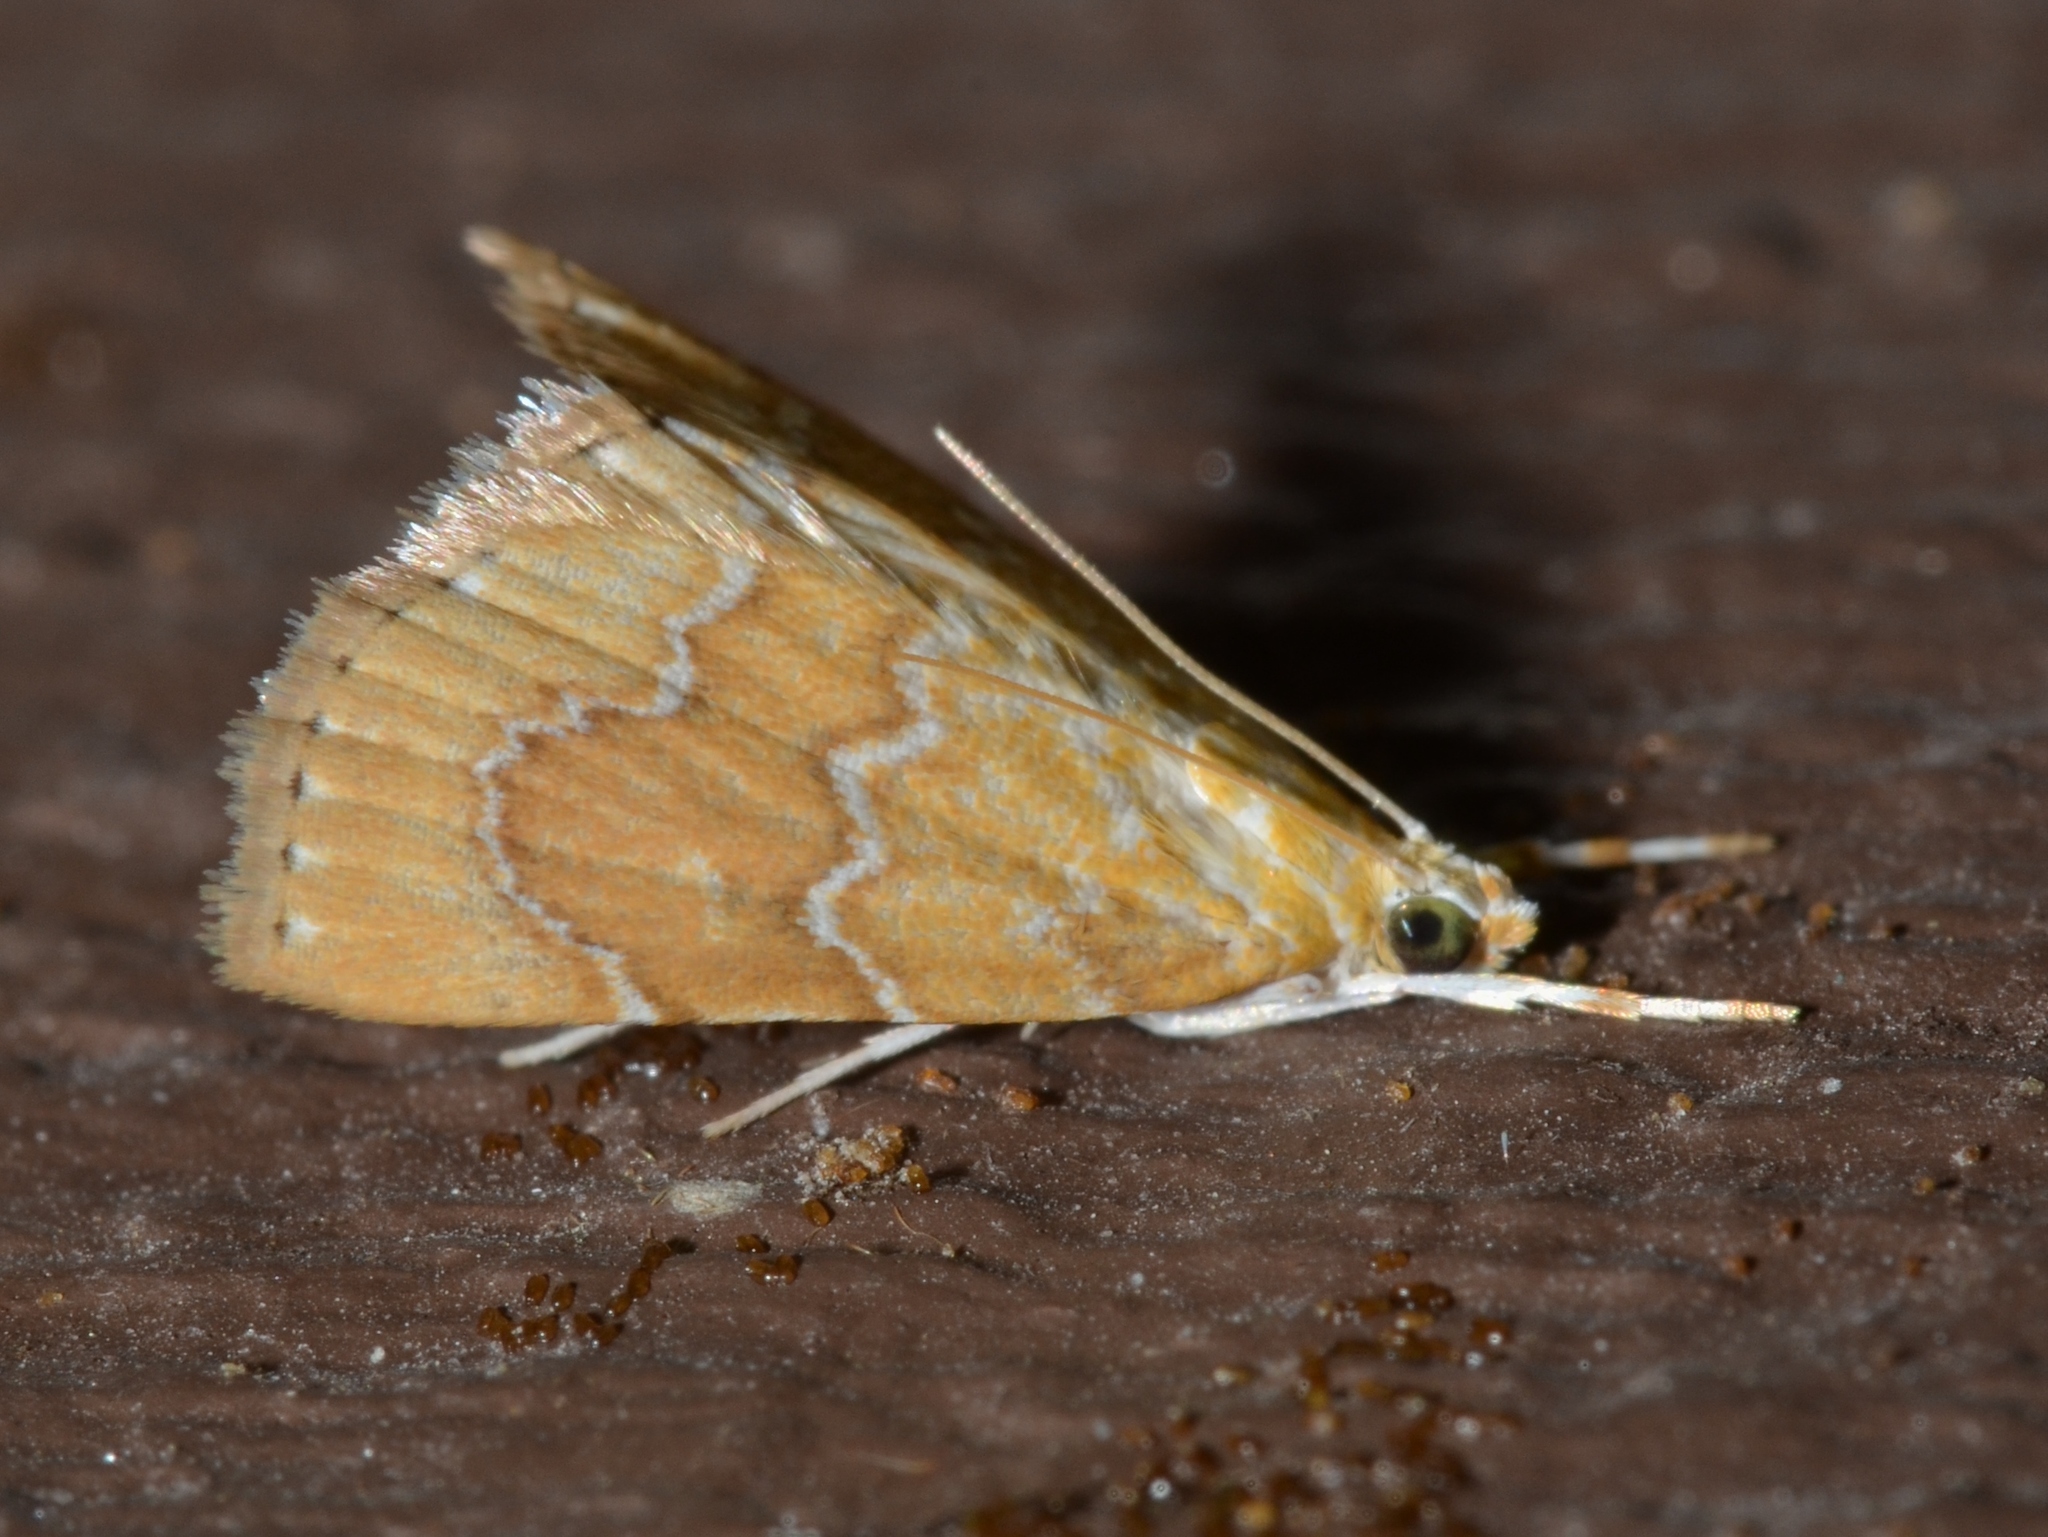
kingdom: Animalia
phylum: Arthropoda
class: Insecta
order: Lepidoptera
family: Crambidae
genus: Glaphyria
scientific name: Glaphyria sesquistrialis
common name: White-roped glaphyria
